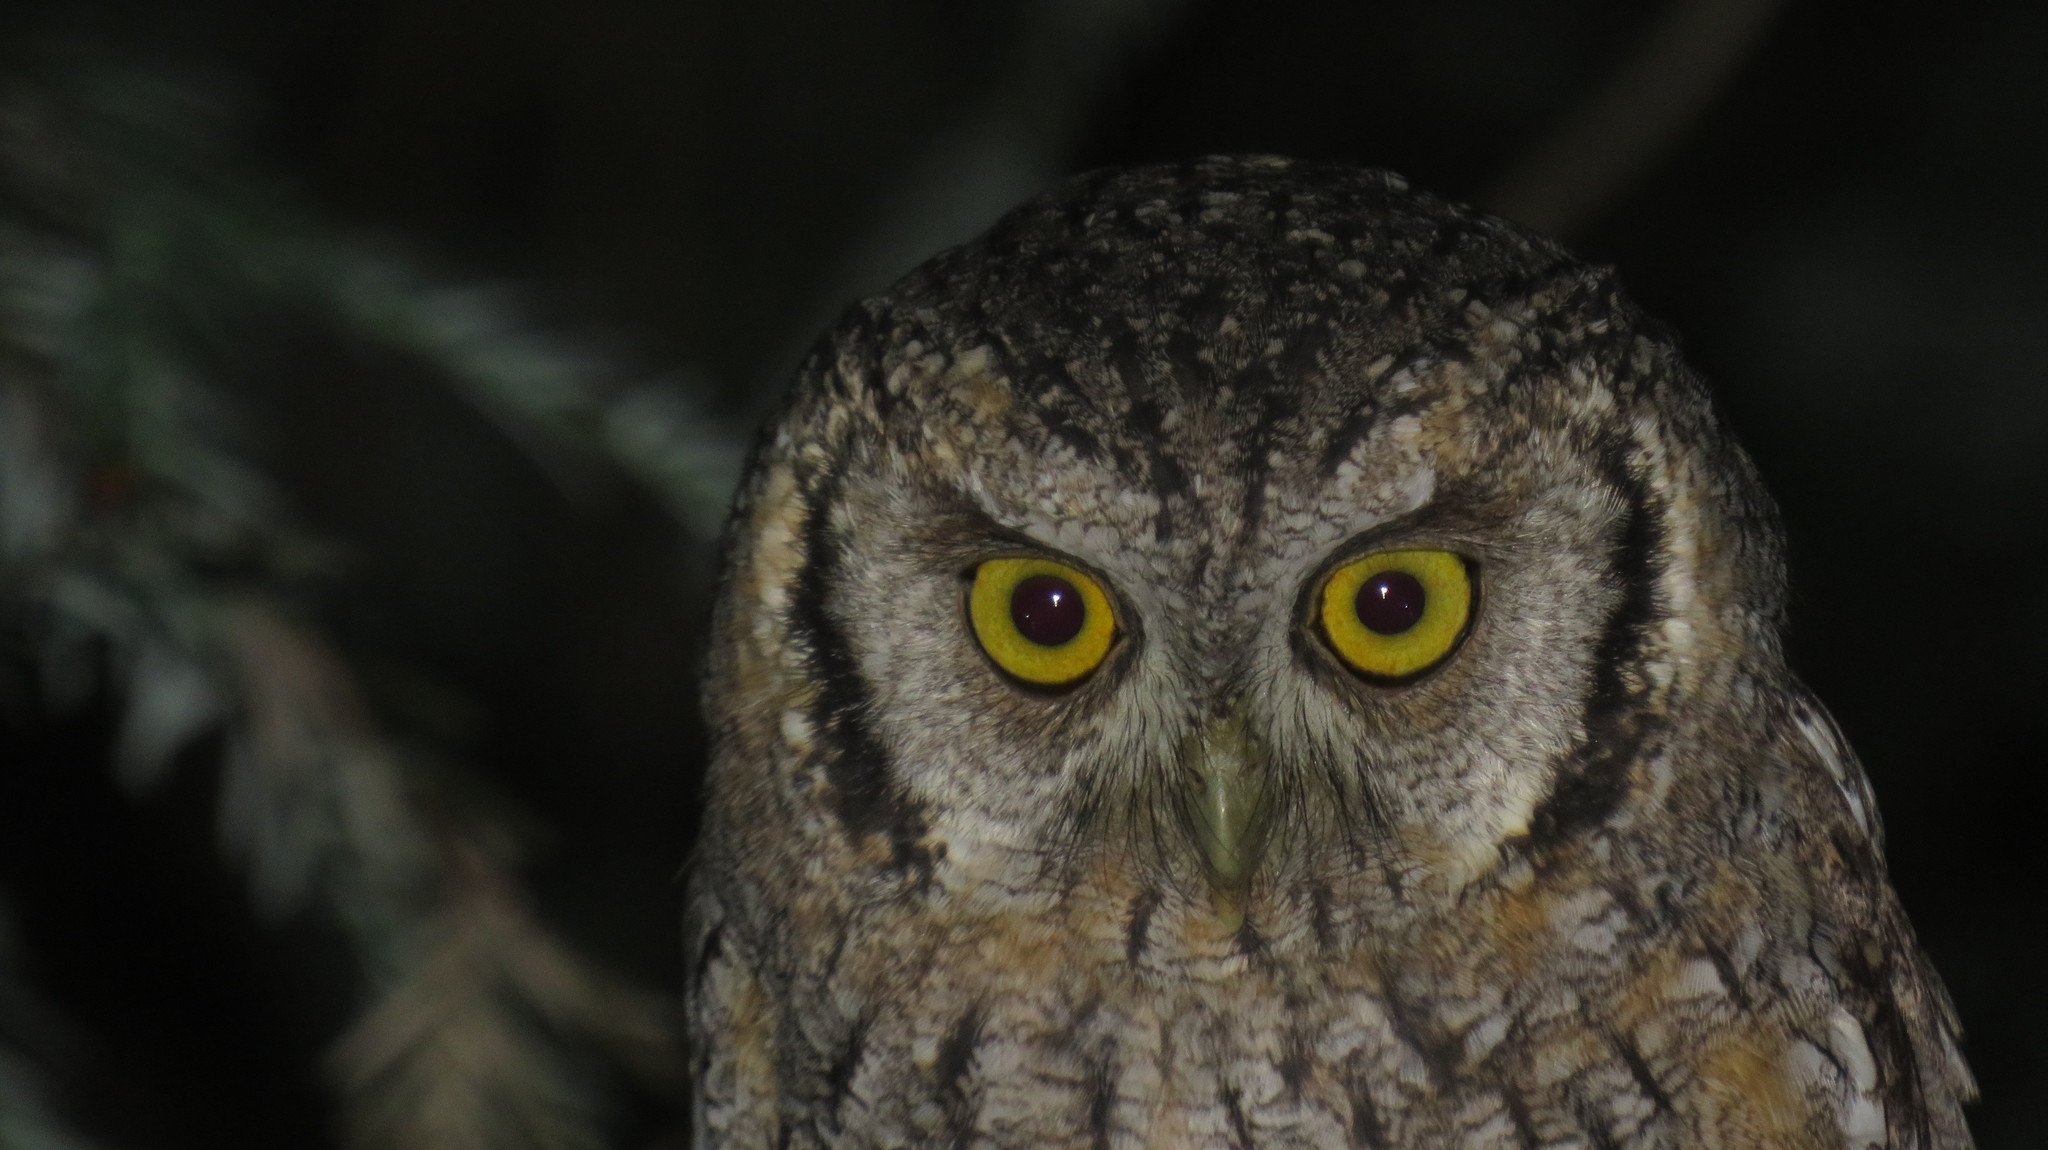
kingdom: Animalia
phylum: Chordata
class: Aves
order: Strigiformes
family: Strigidae
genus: Megascops
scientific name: Megascops choliba
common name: Tropical screech-owl
